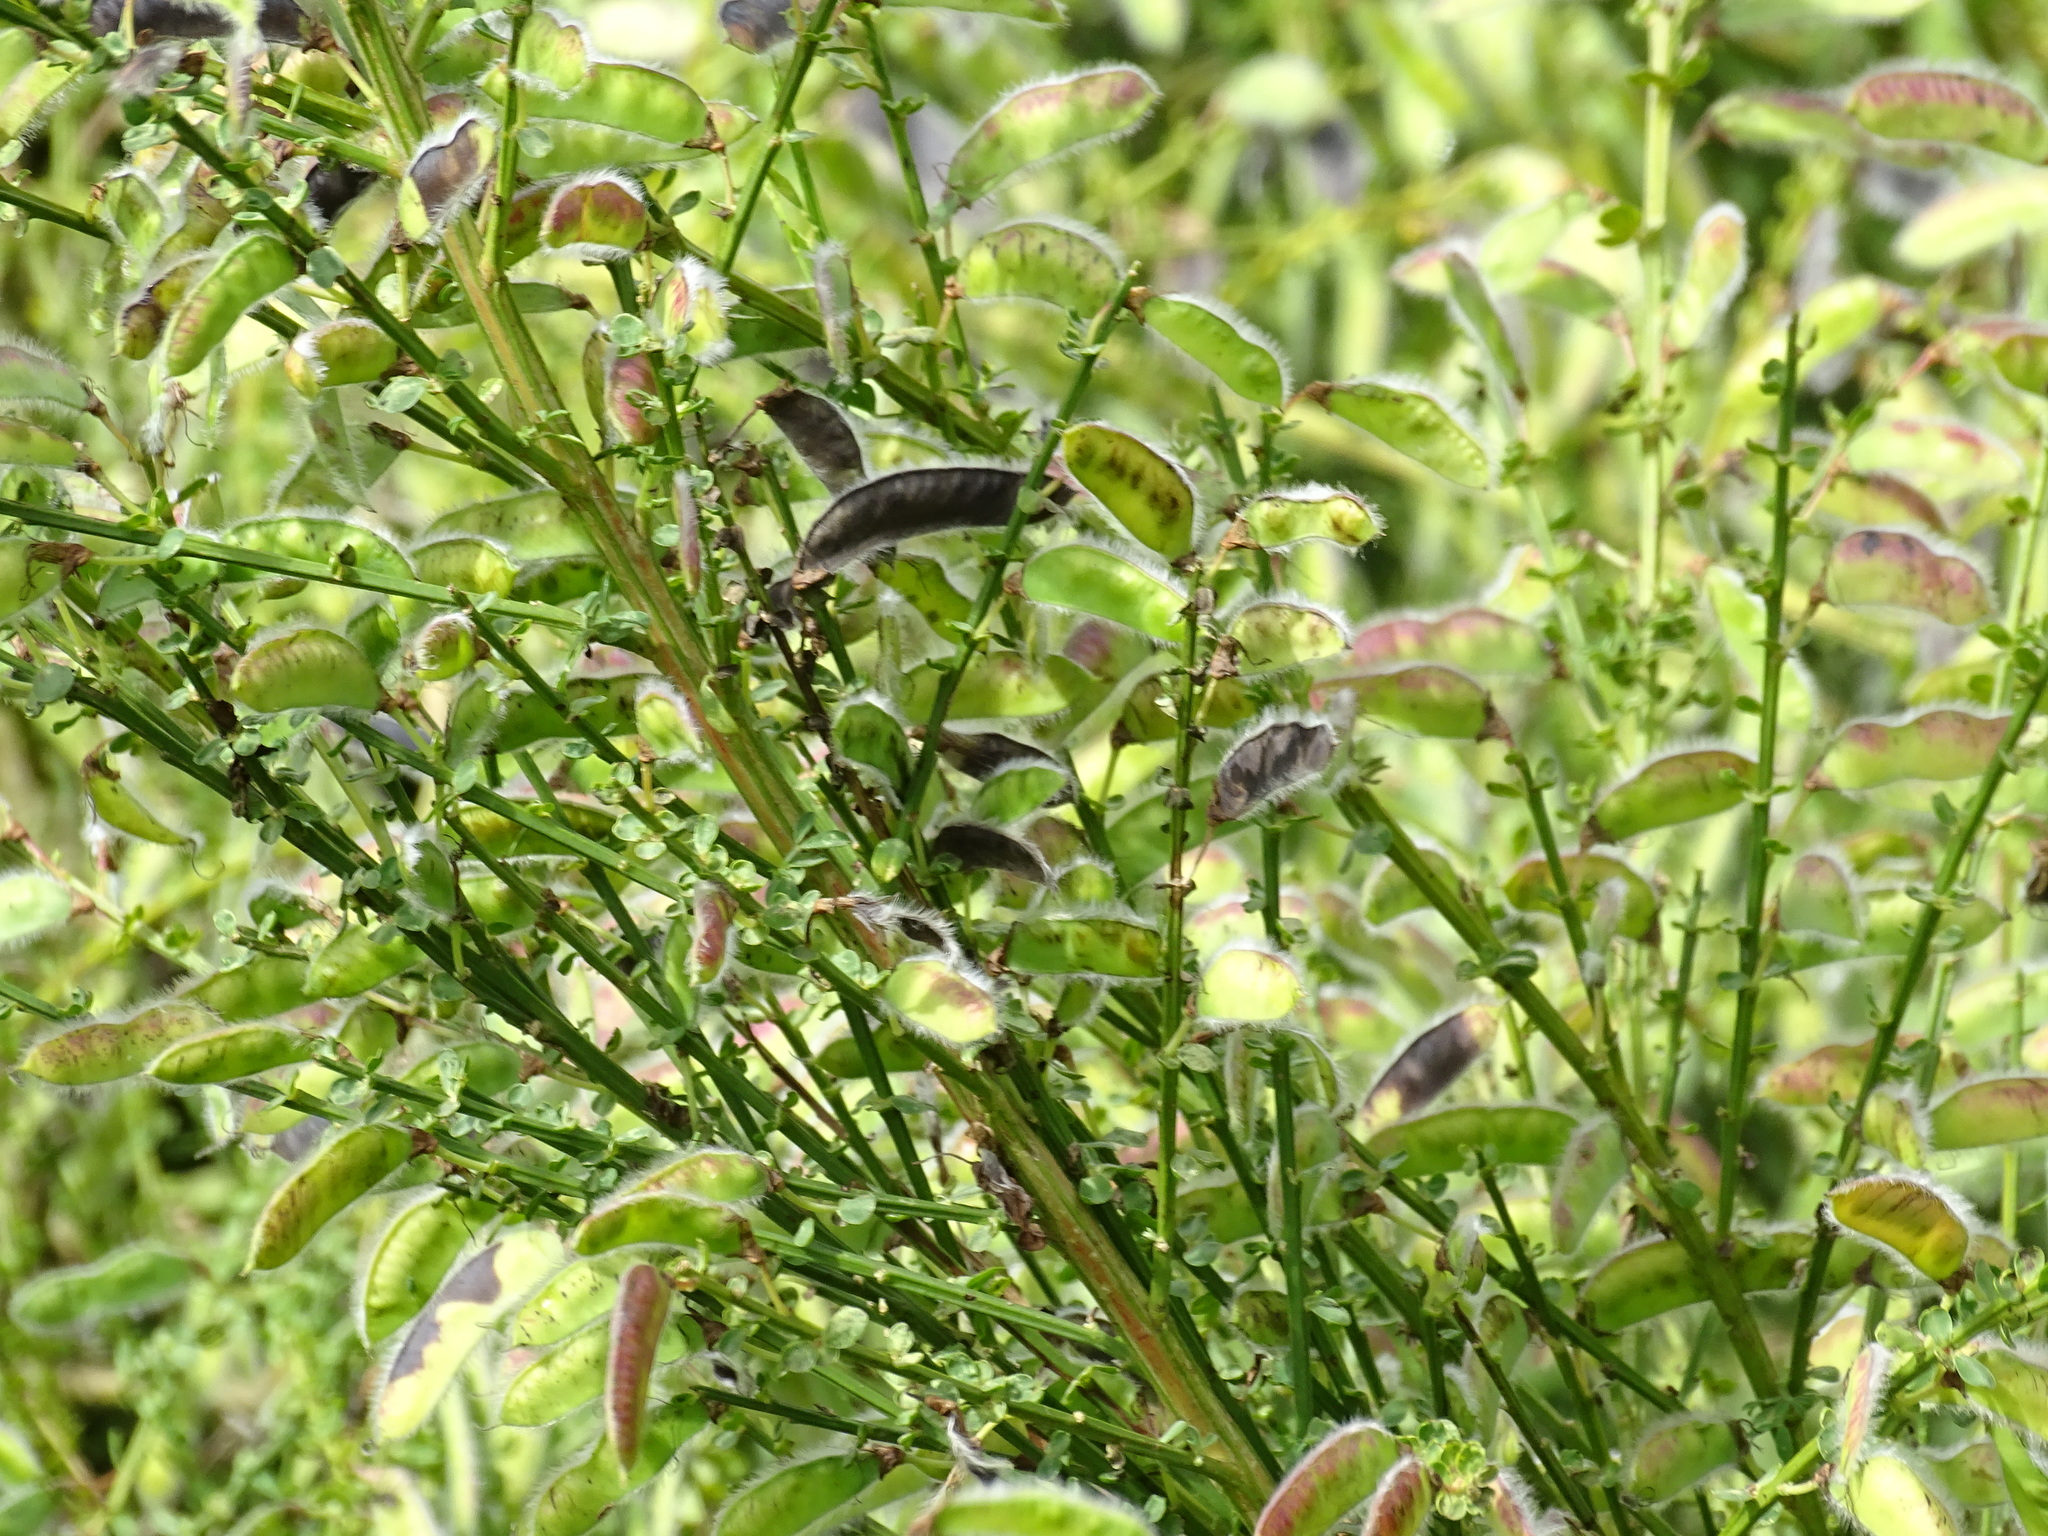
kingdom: Plantae
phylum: Tracheophyta
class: Magnoliopsida
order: Fabales
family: Fabaceae
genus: Cytisus
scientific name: Cytisus scoparius
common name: Scotch broom
